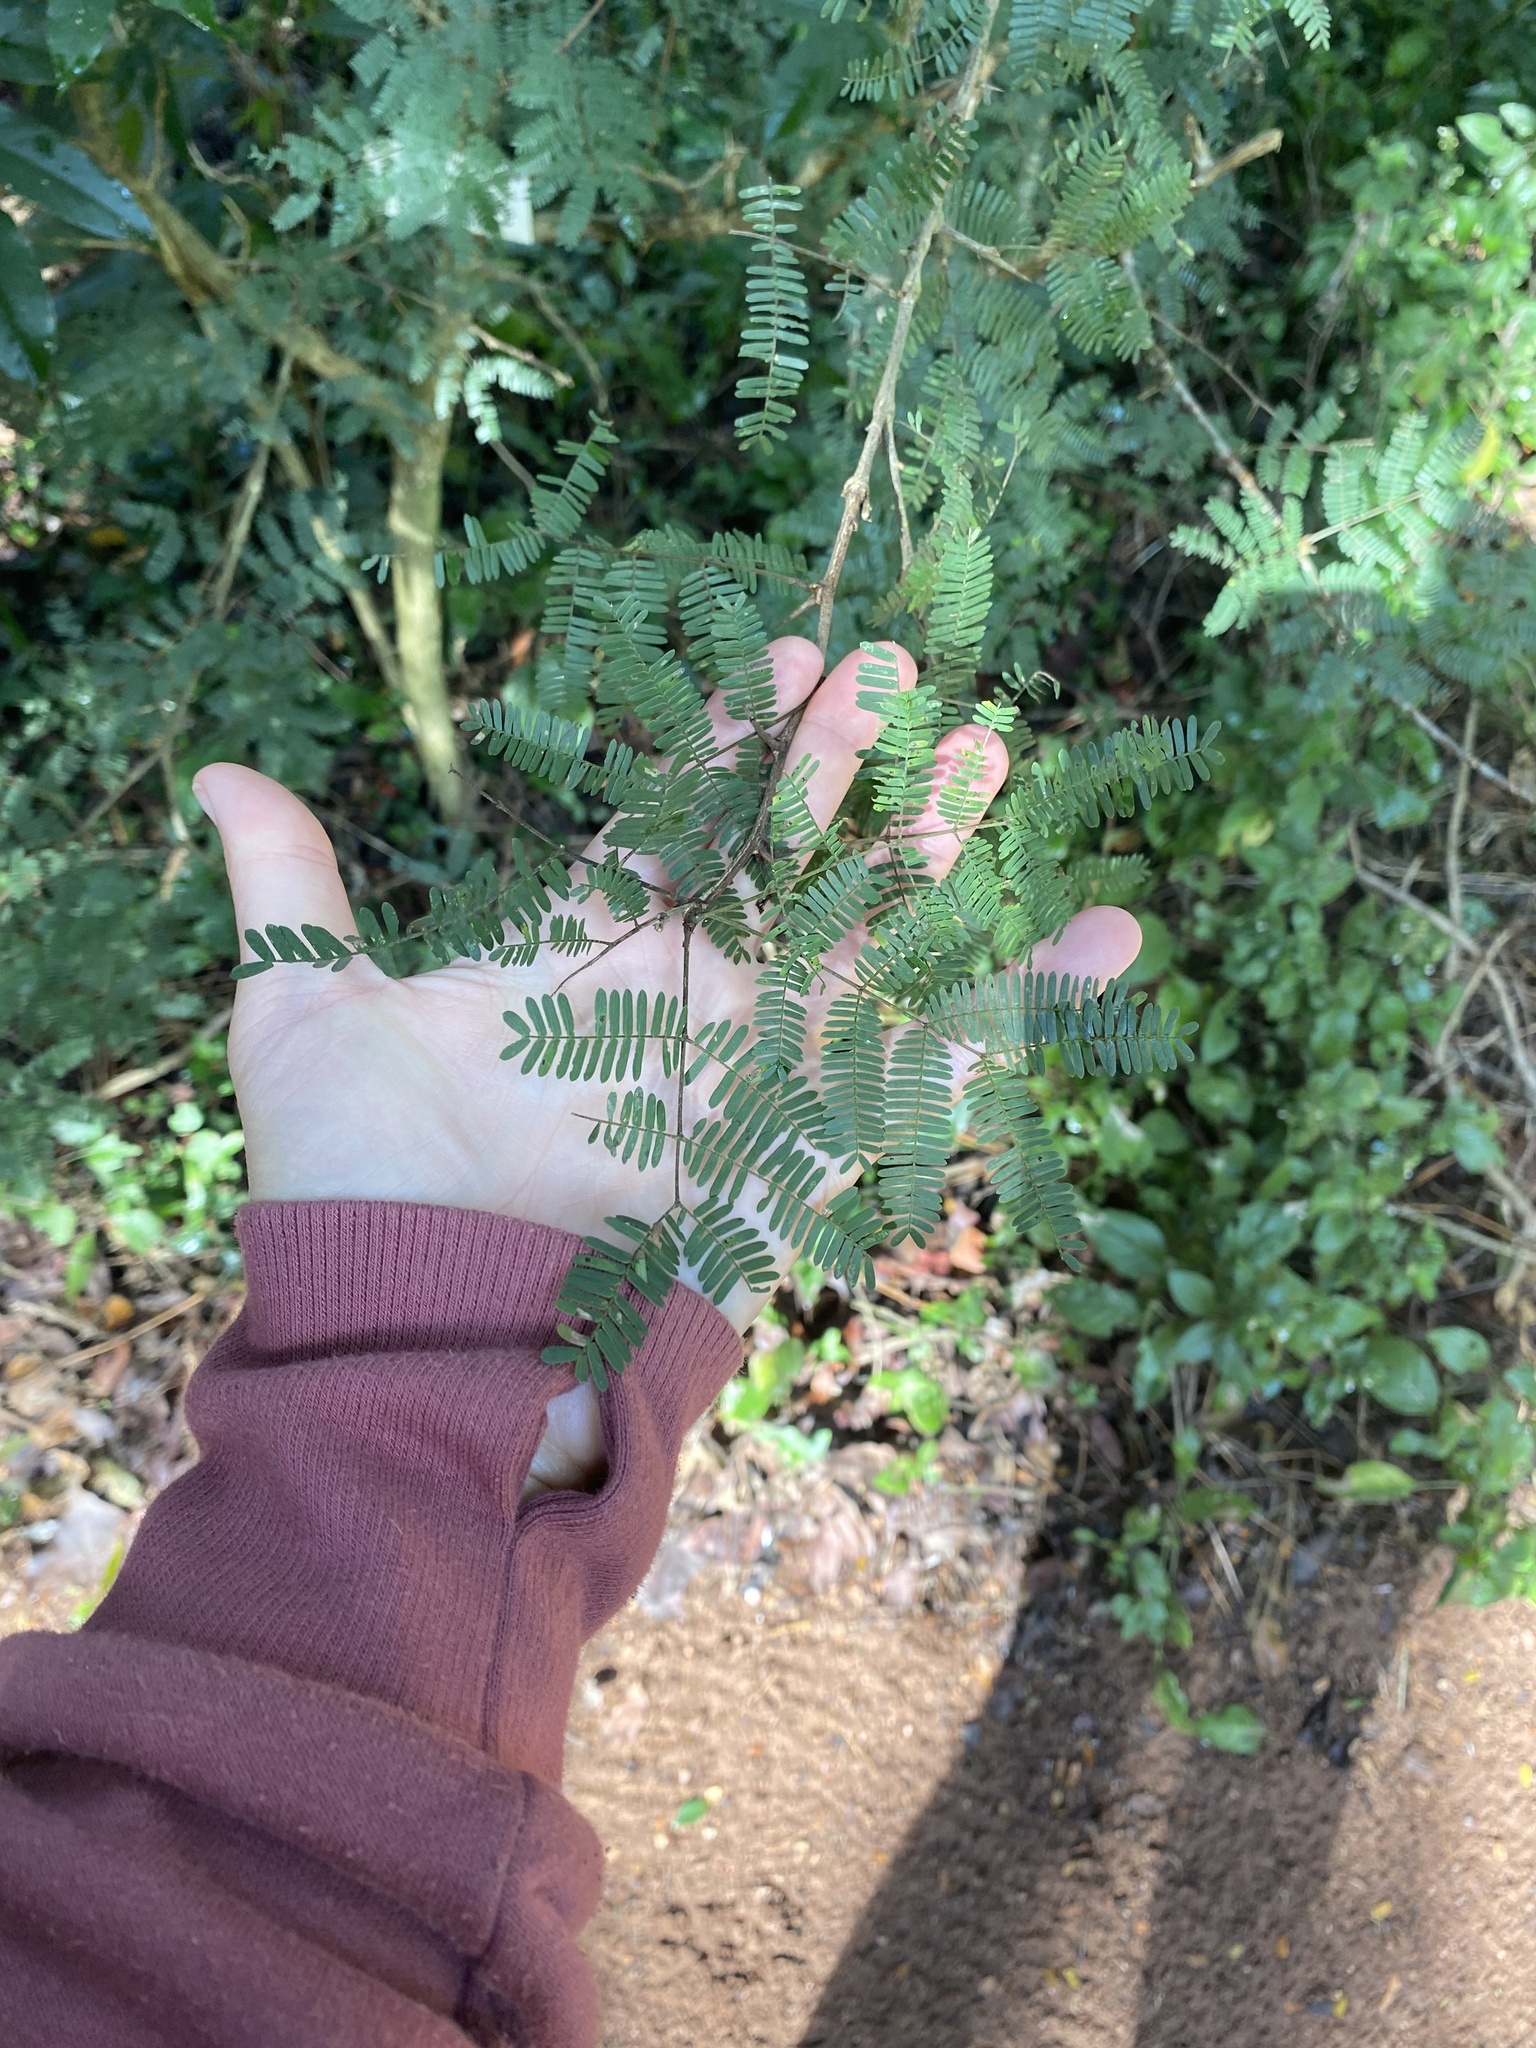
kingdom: Plantae
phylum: Tracheophyta
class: Magnoliopsida
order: Fabales
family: Fabaceae
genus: Dichrostachys
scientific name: Dichrostachys cinerea
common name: Sicklebush
